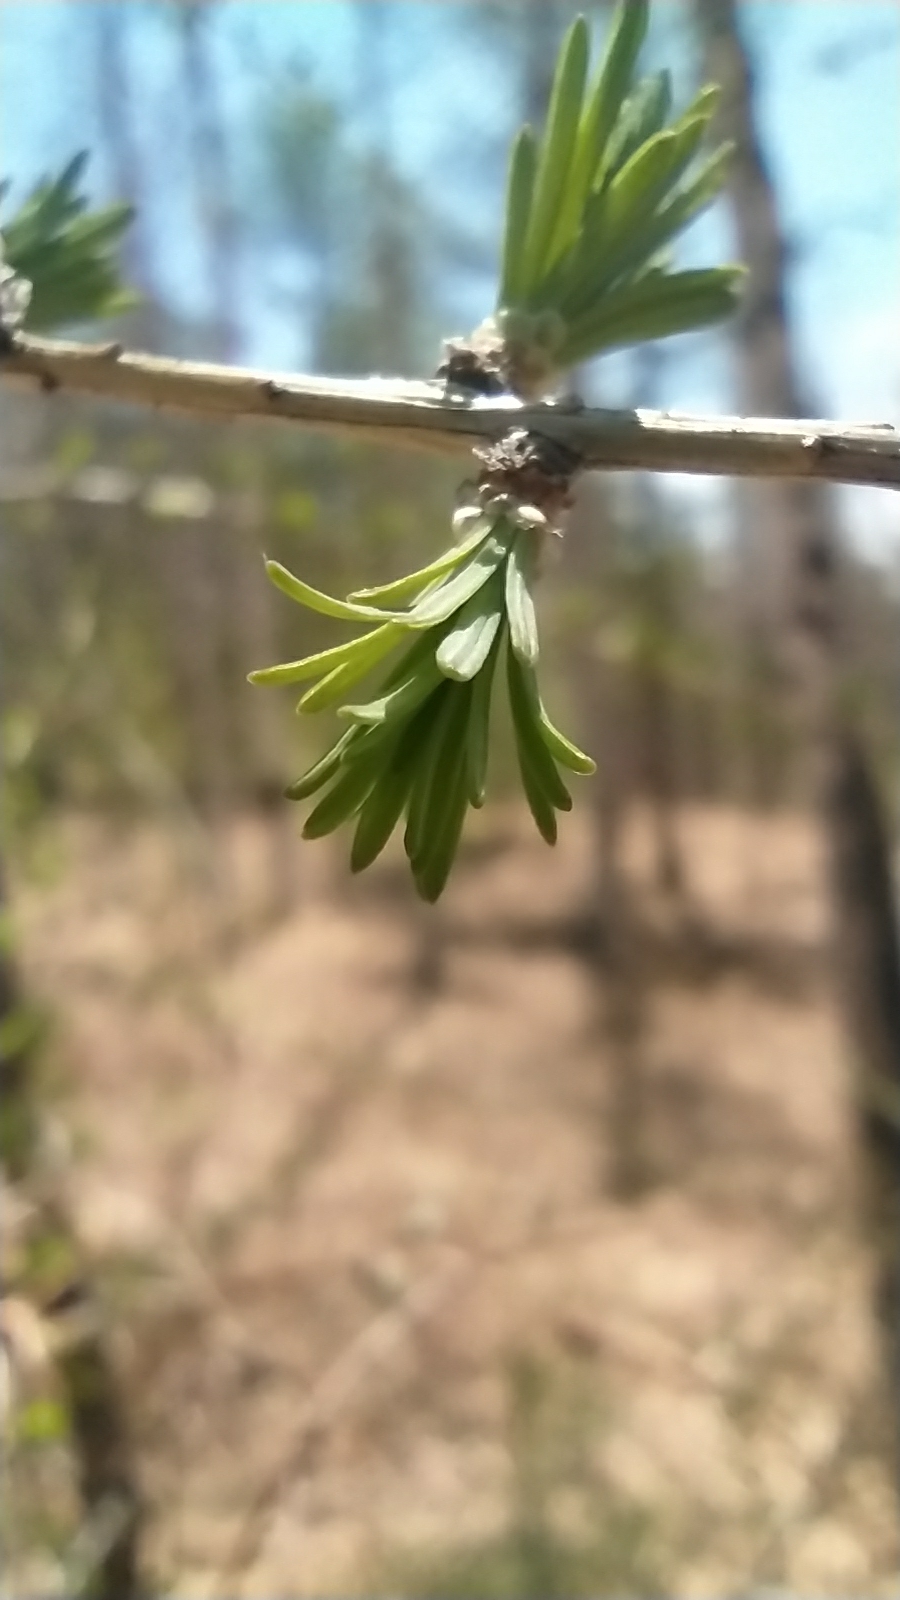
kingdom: Plantae
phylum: Tracheophyta
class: Pinopsida
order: Pinales
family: Pinaceae
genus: Larix
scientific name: Larix gmelinii
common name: Dahurian larch
